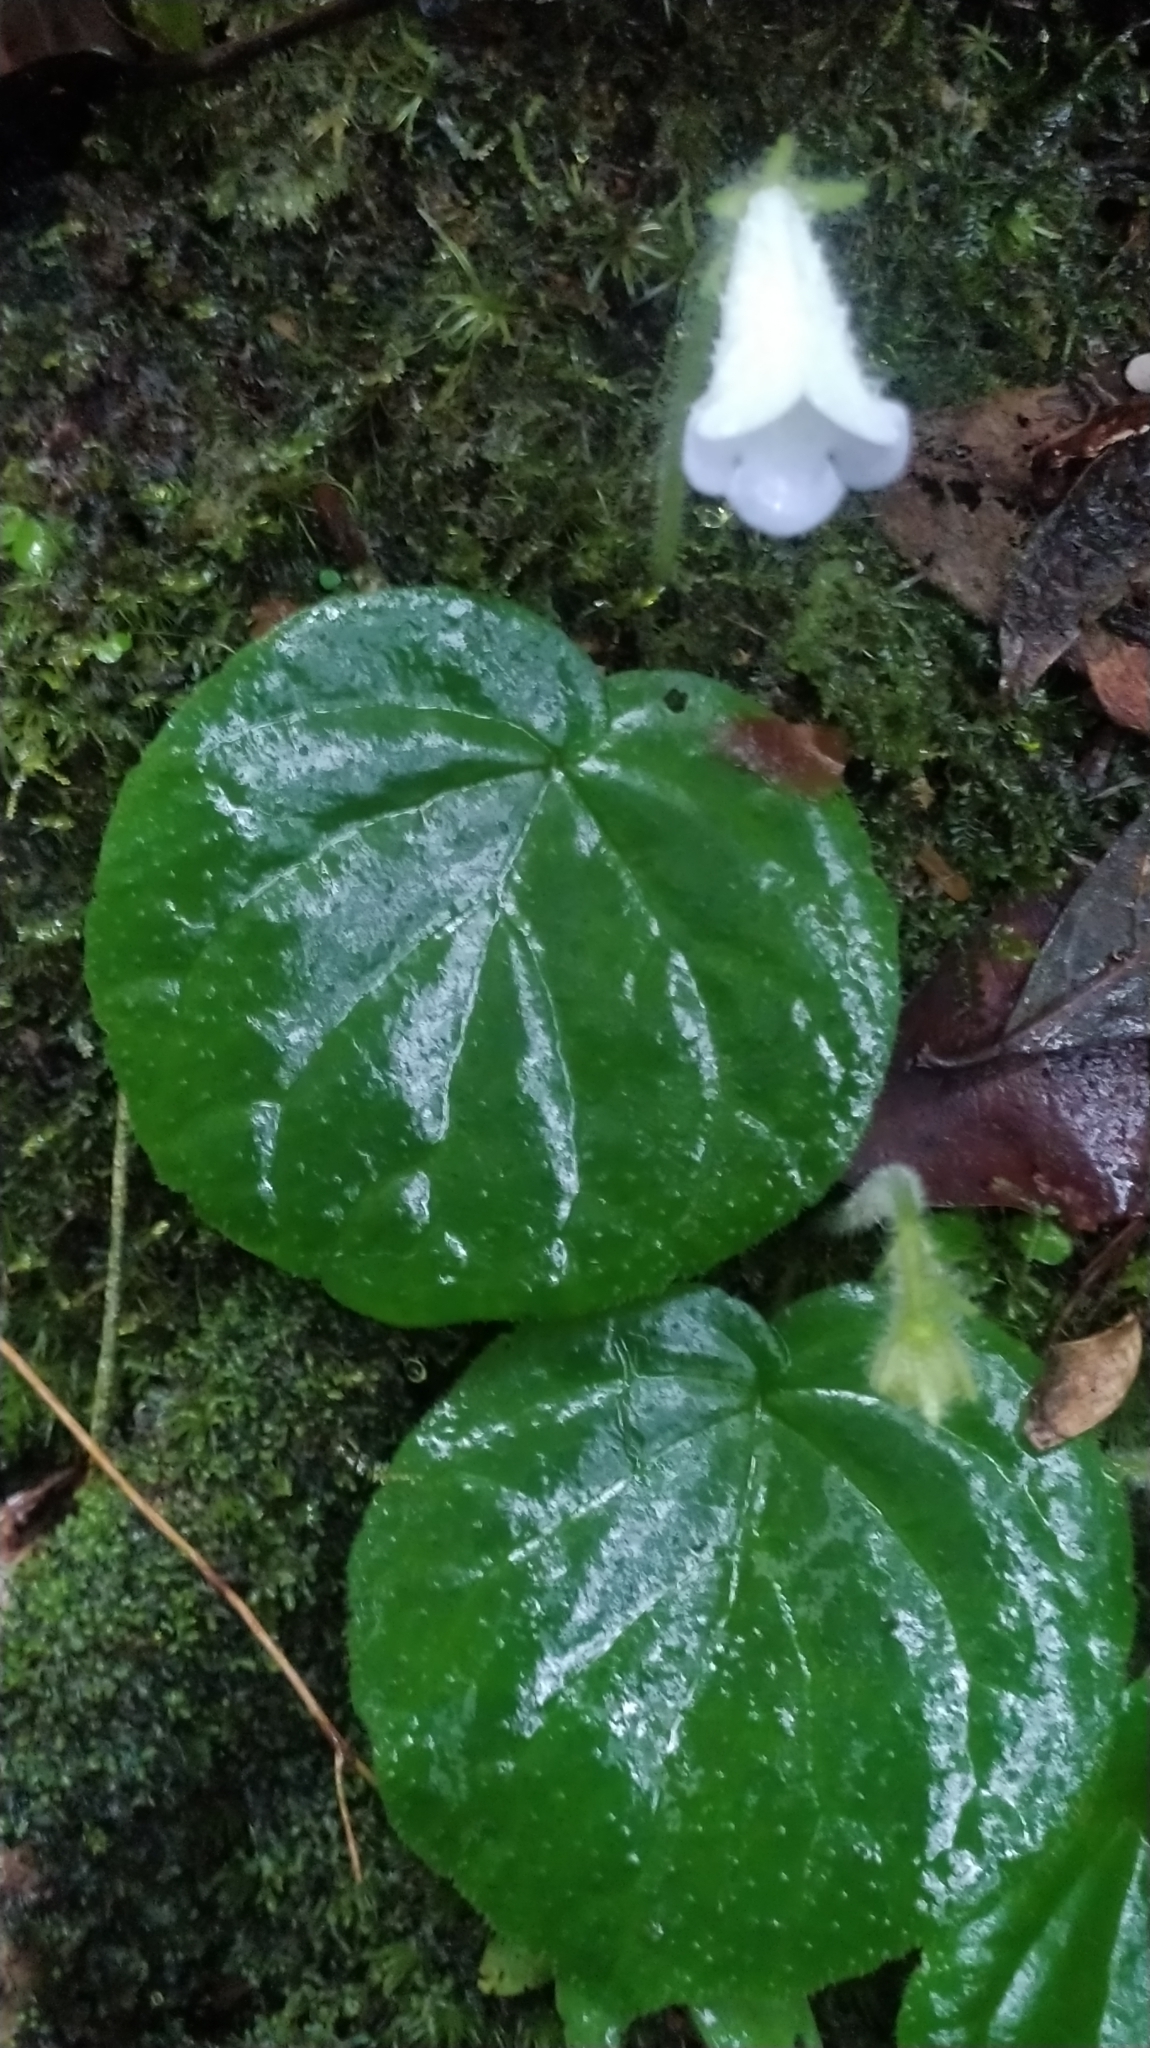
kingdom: Plantae
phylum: Tracheophyta
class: Magnoliopsida
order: Lamiales
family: Gesneriaceae
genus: Lembocarpus
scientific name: Lembocarpus amoenus
